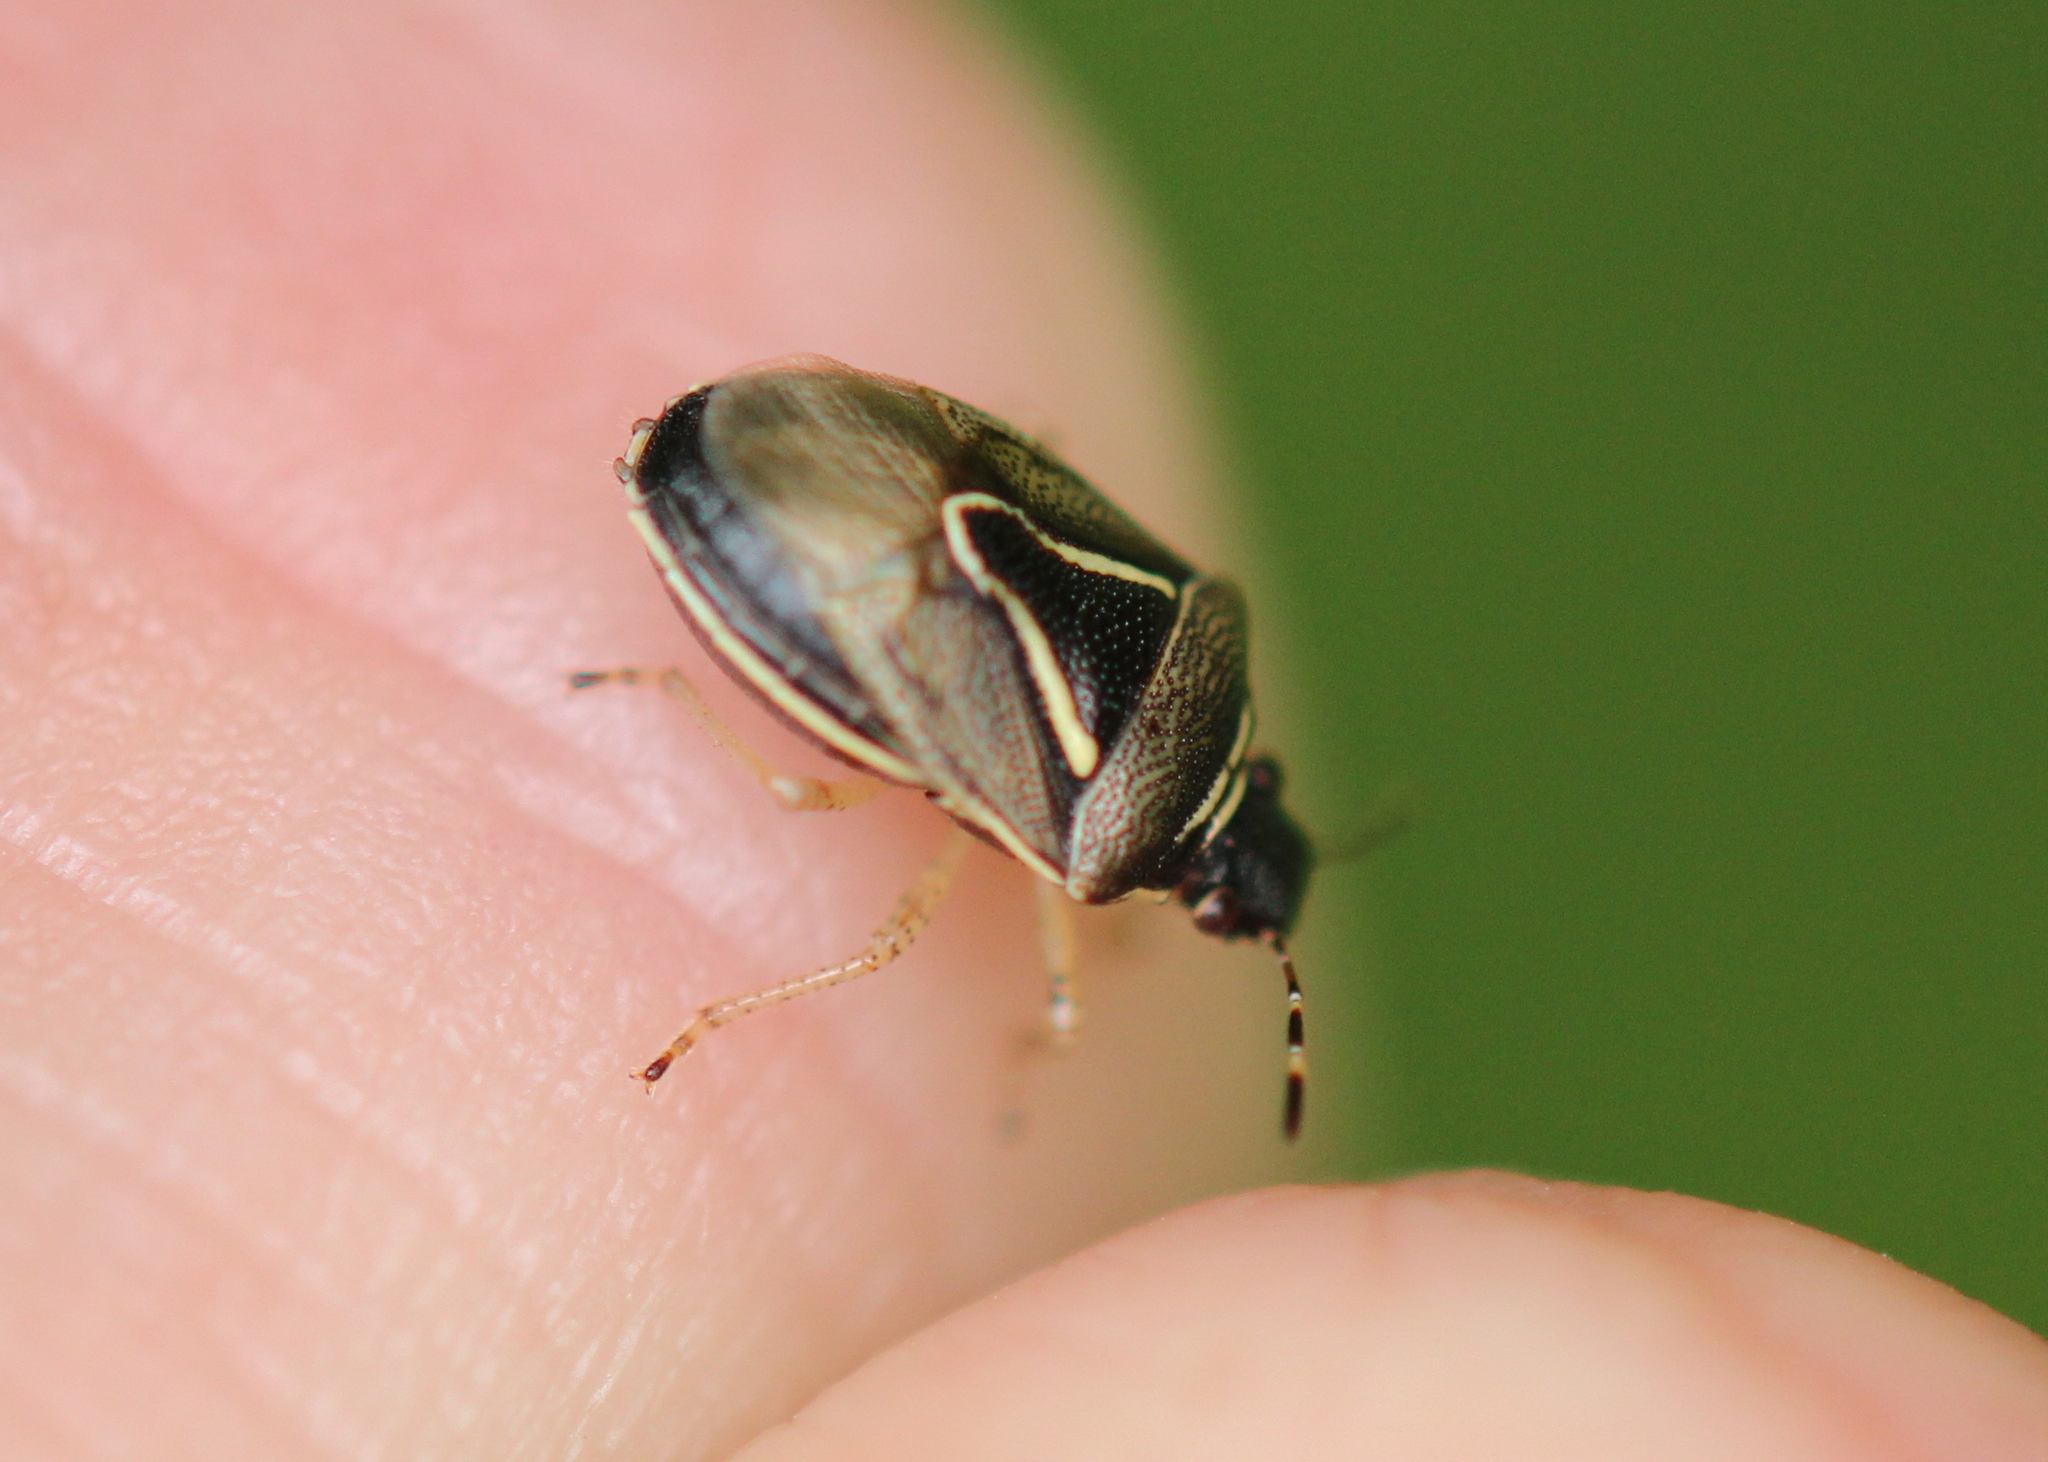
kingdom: Animalia
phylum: Arthropoda
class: Insecta
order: Hemiptera
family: Pentatomidae
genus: Mormidea
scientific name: Mormidea lugens
